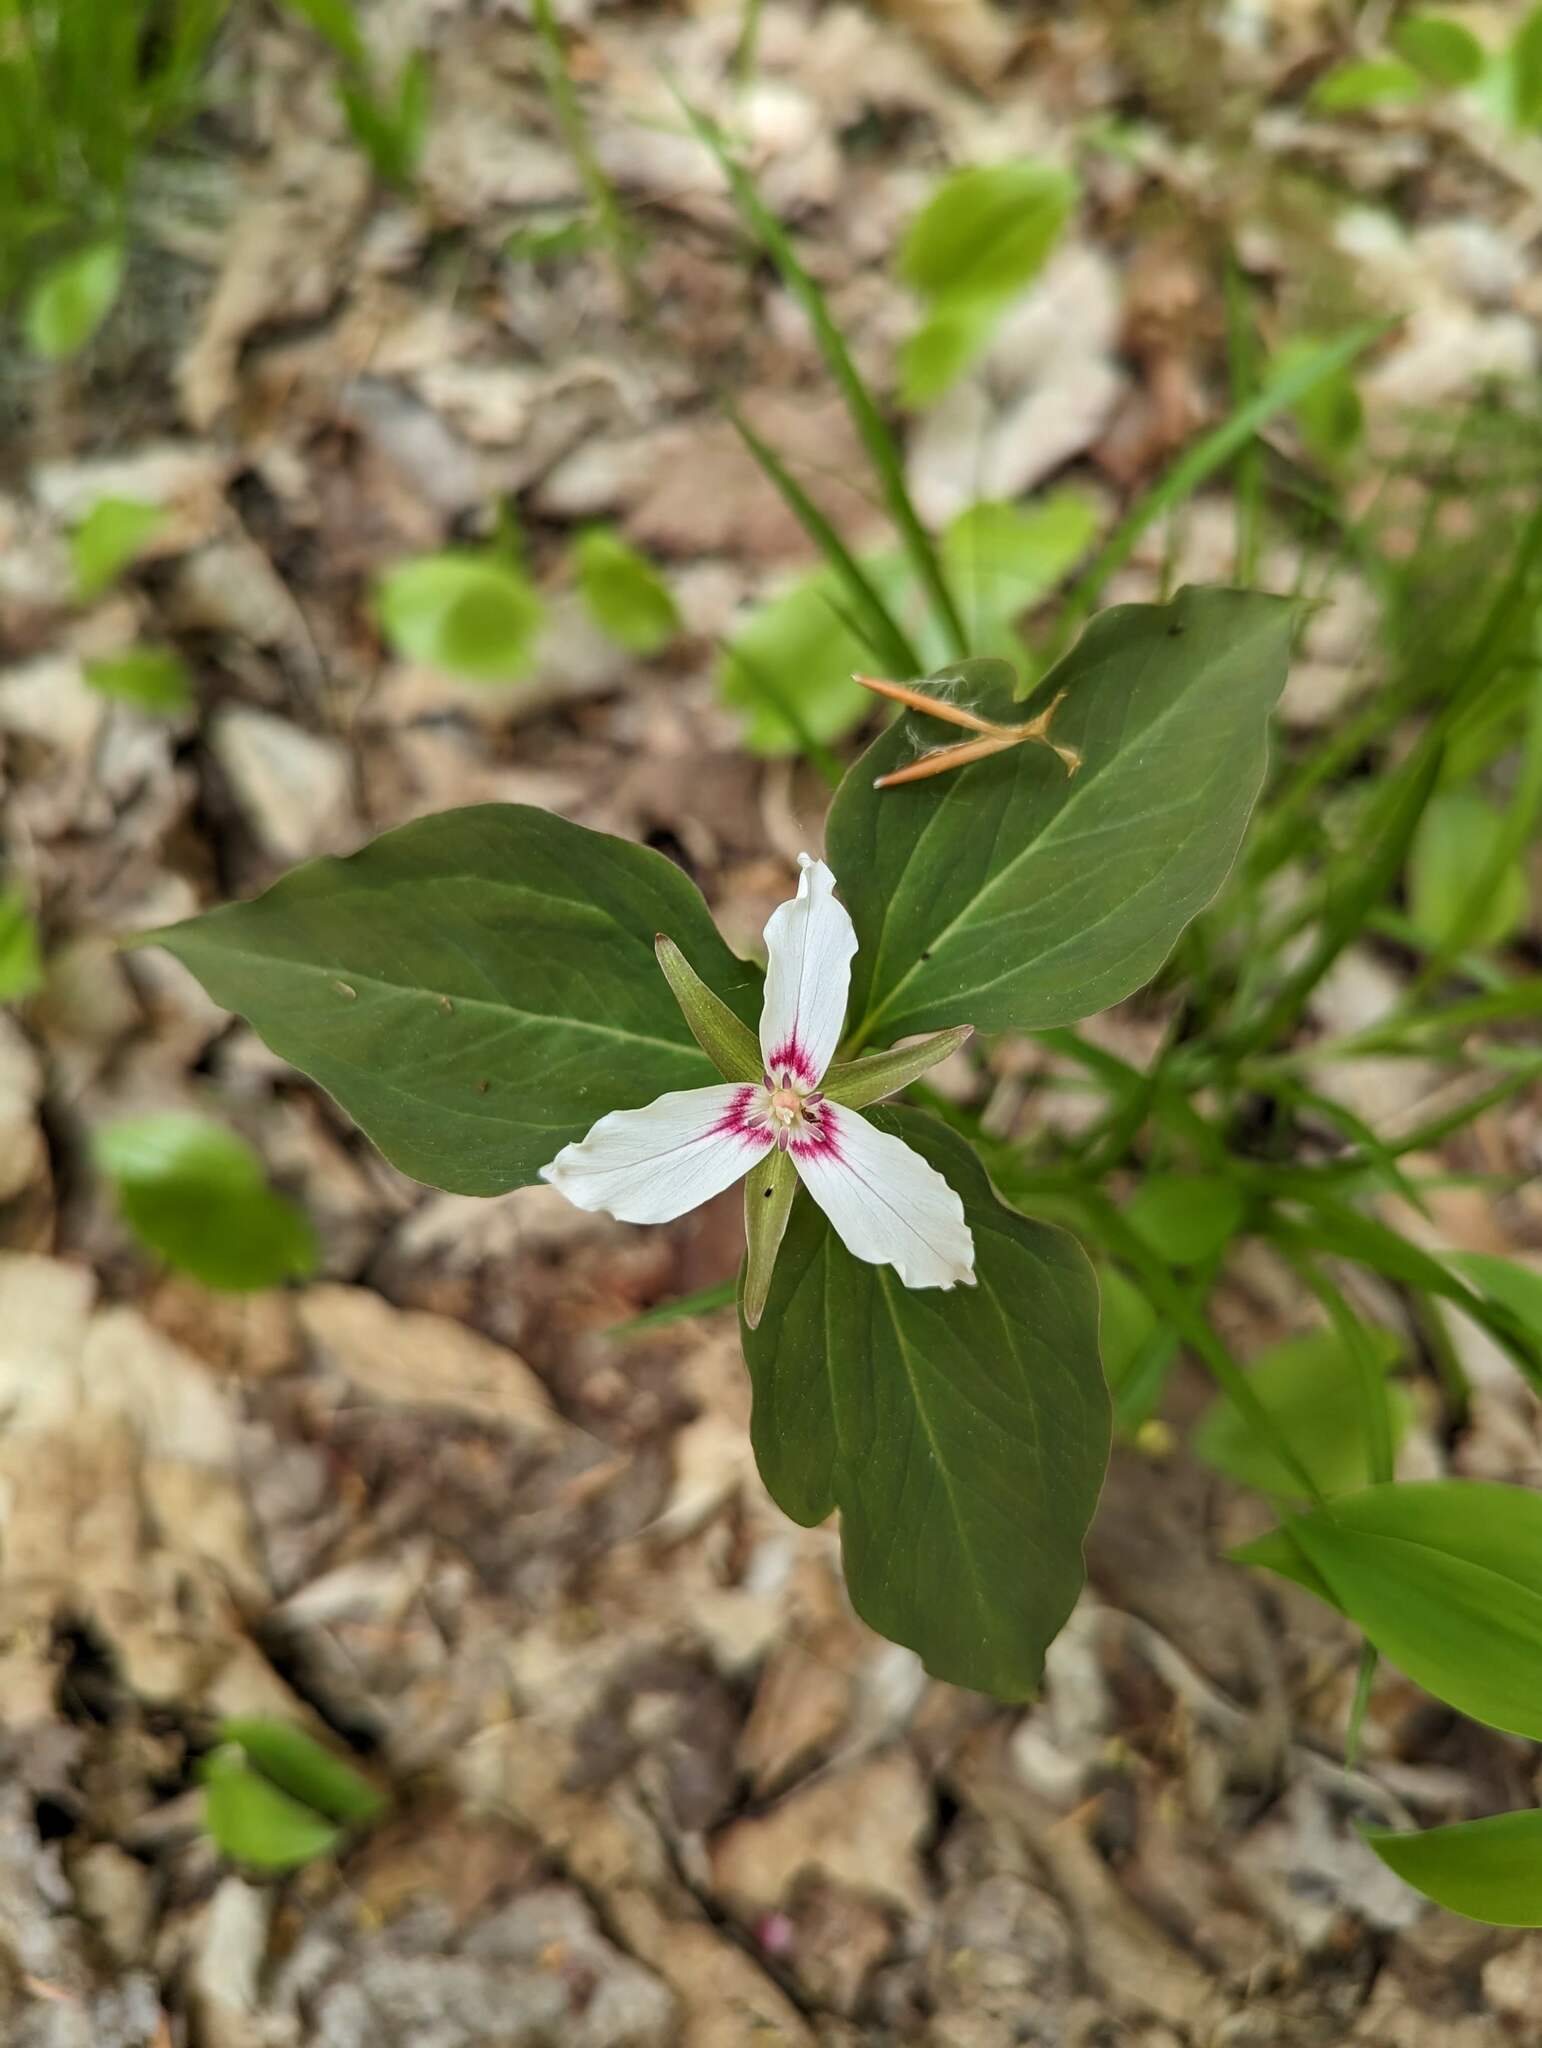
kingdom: Plantae
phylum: Tracheophyta
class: Liliopsida
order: Liliales
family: Melanthiaceae
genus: Trillium
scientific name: Trillium undulatum
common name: Paint trillium
